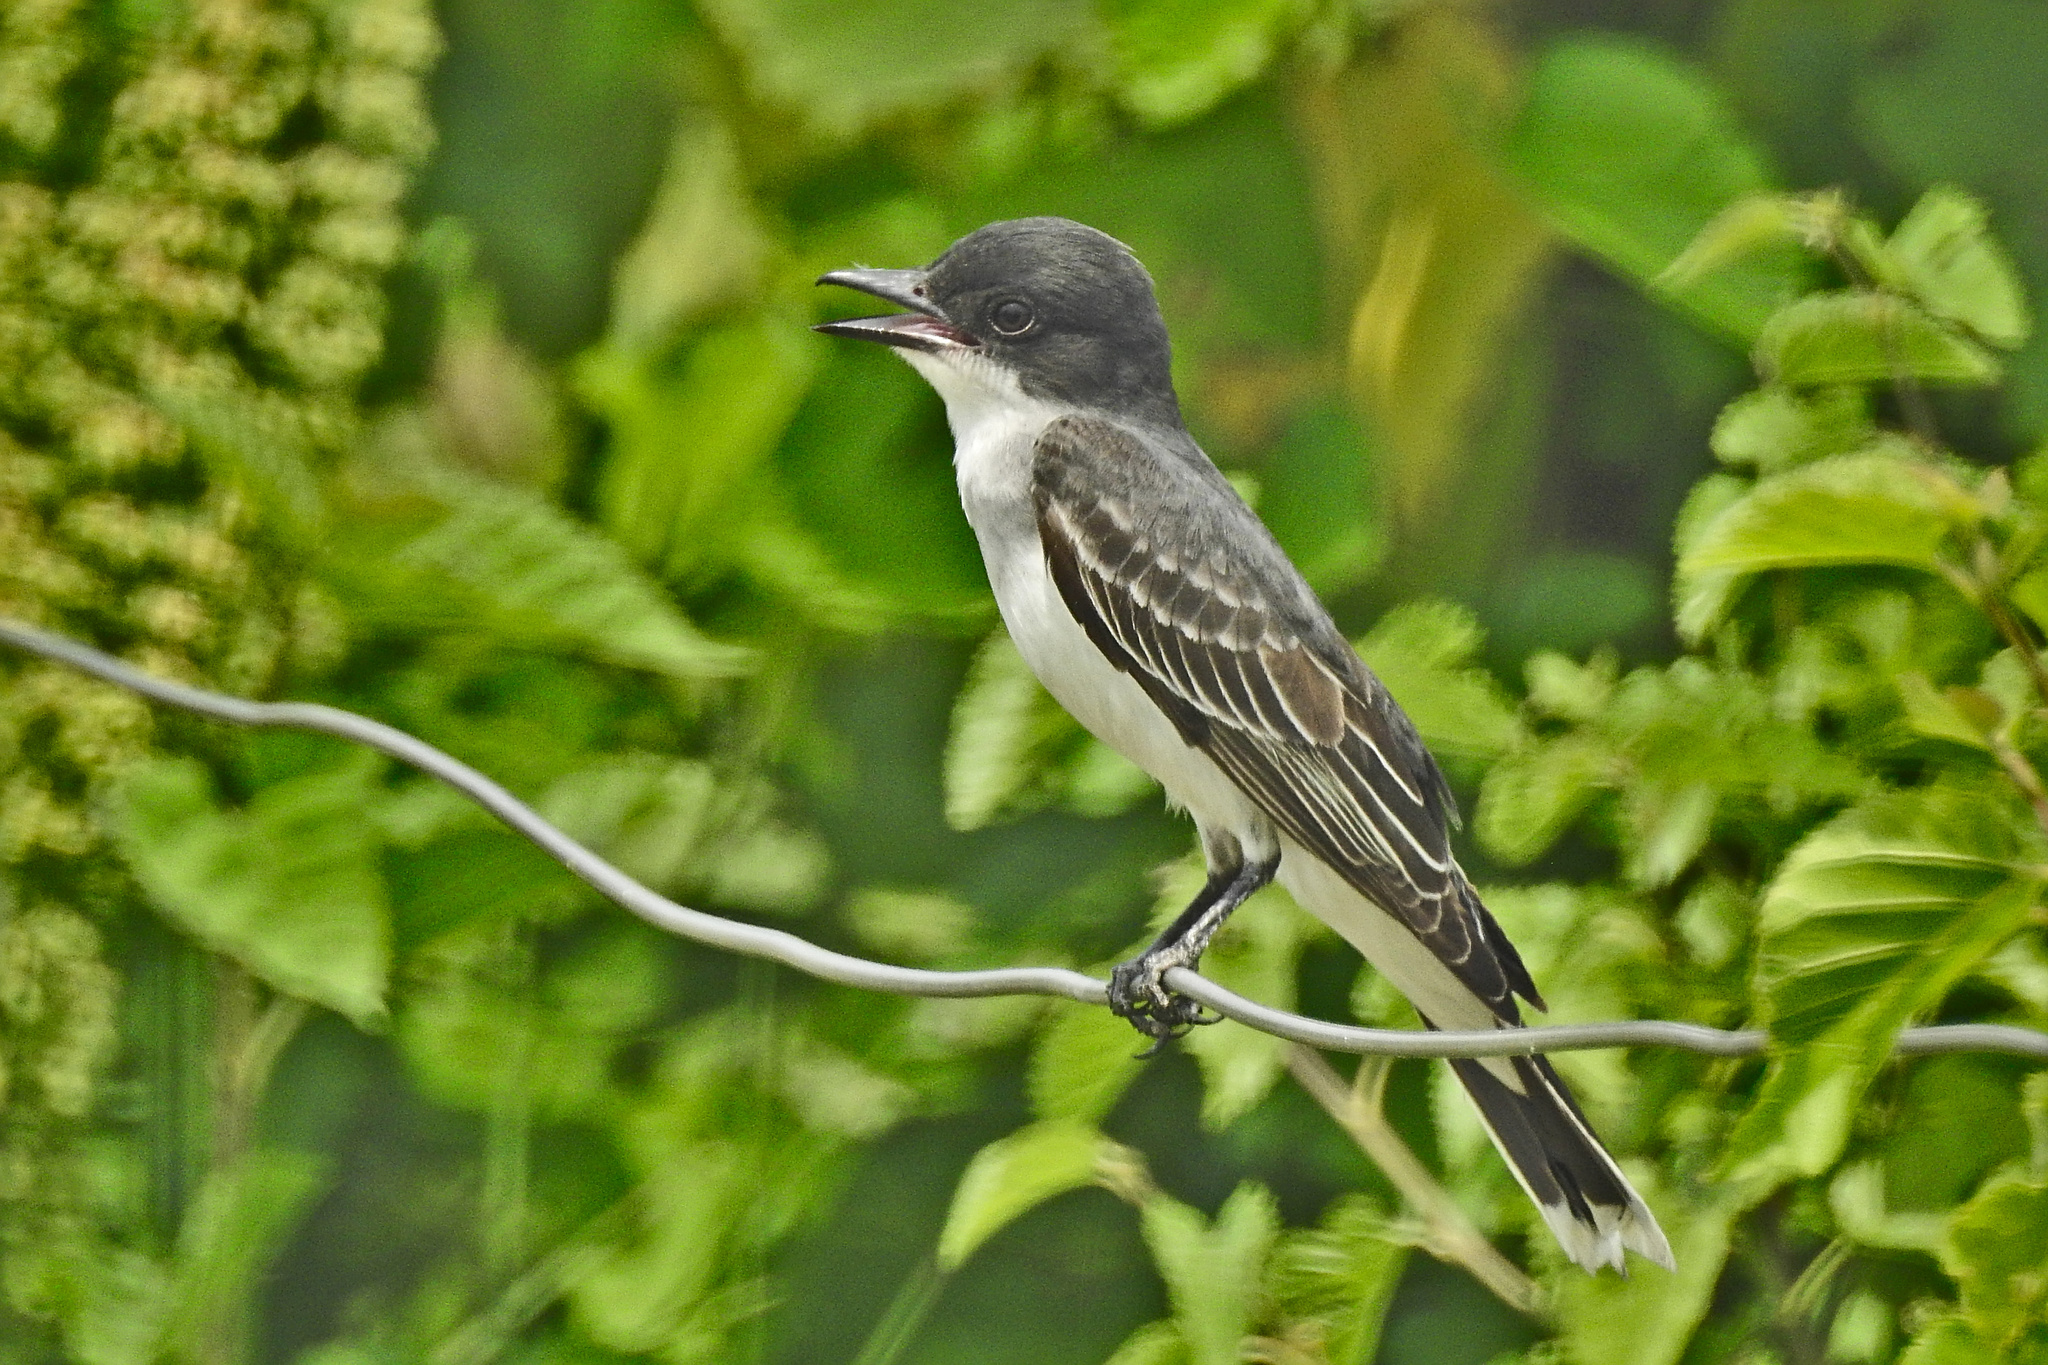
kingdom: Animalia
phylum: Chordata
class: Aves
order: Passeriformes
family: Tyrannidae
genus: Tyrannus
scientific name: Tyrannus tyrannus
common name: Eastern kingbird
